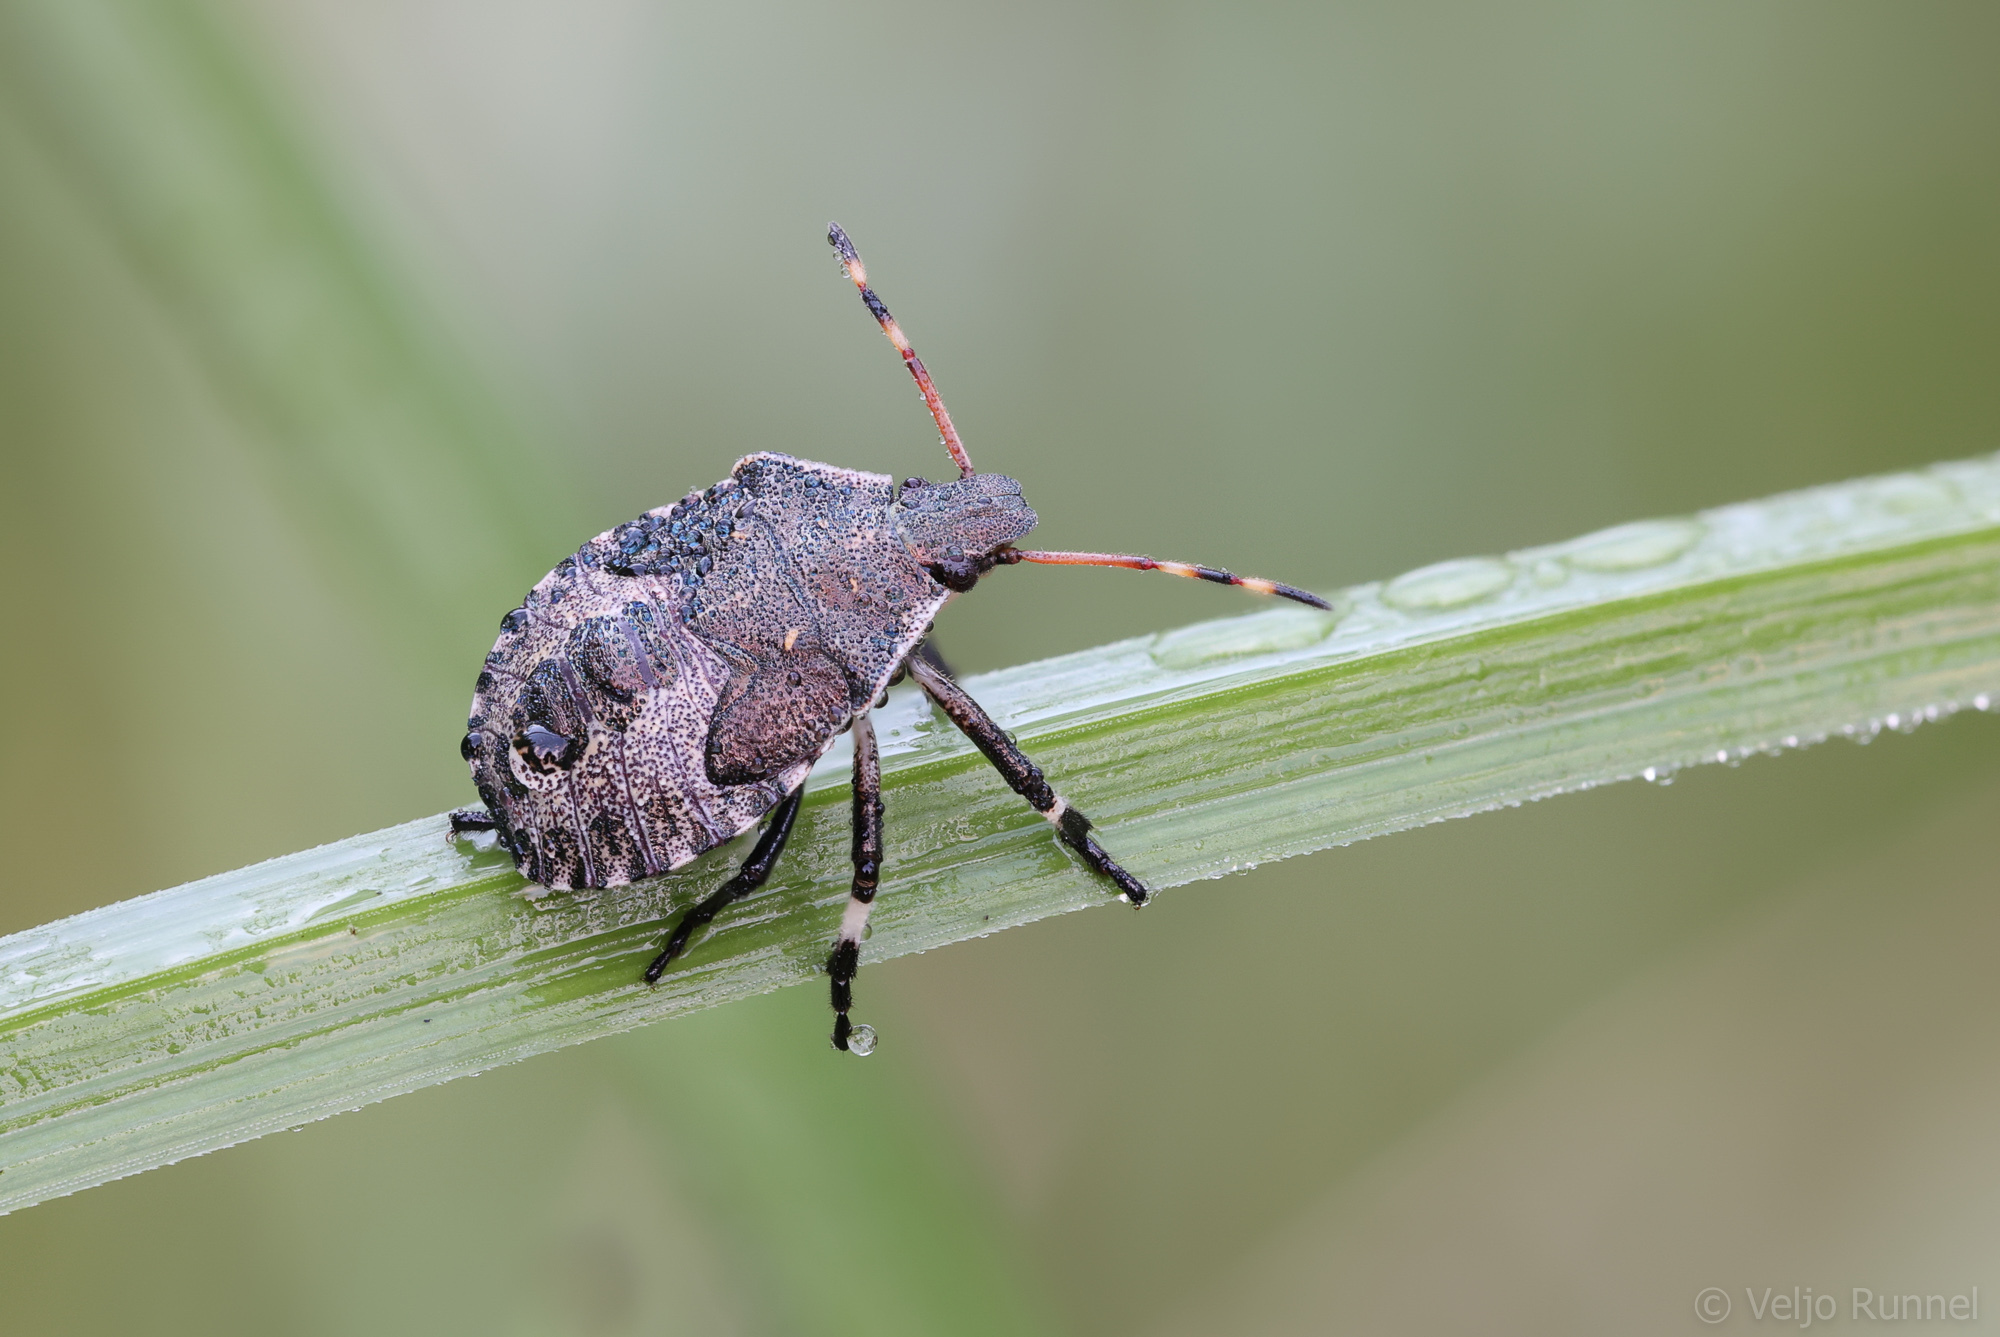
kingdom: Animalia
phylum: Arthropoda
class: Insecta
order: Hemiptera
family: Pentatomidae
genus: Picromerus
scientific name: Picromerus bidens
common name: Spiked shieldbug
